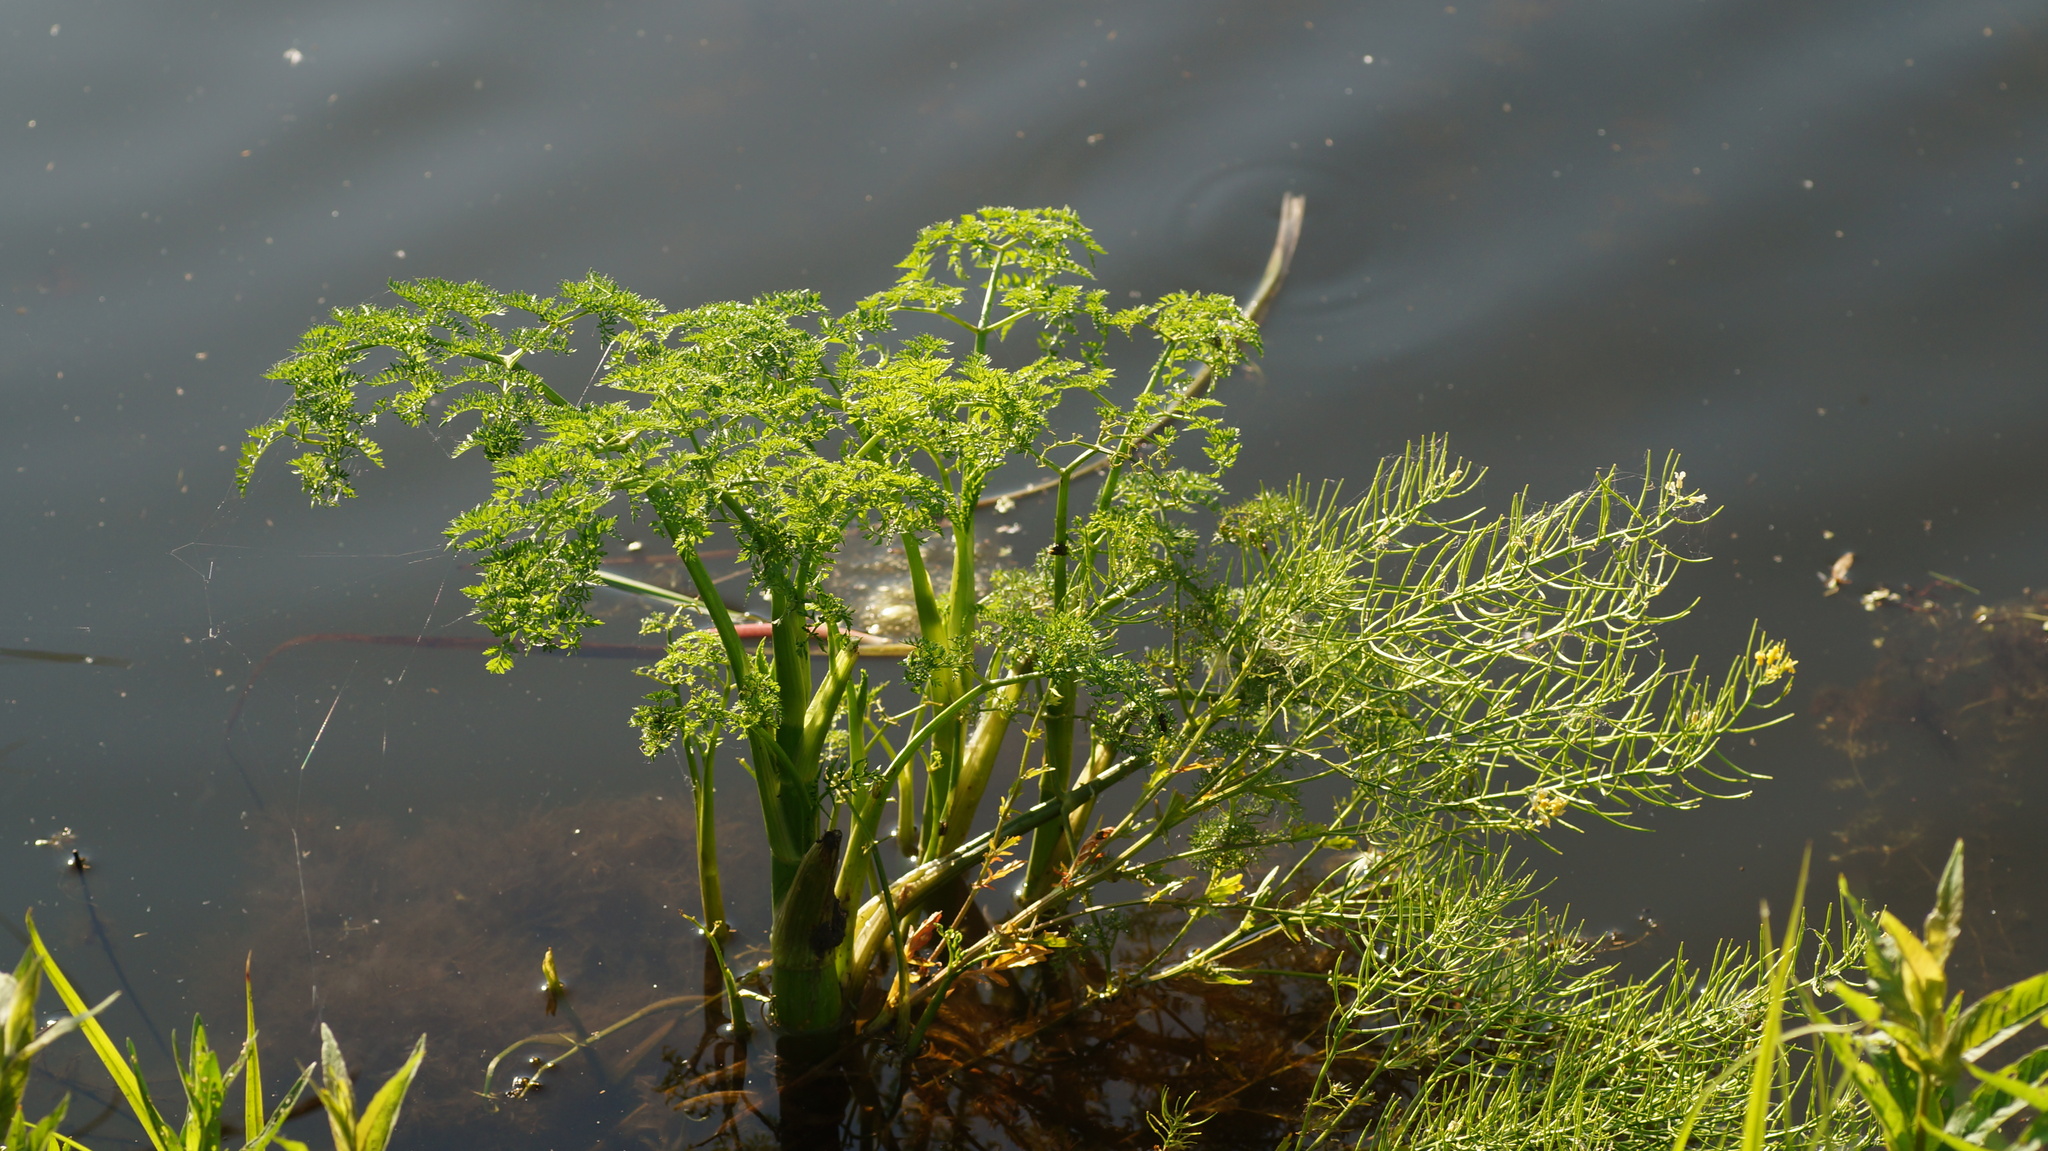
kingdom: Plantae
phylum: Tracheophyta
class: Magnoliopsida
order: Apiales
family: Apiaceae
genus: Oenanthe
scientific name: Oenanthe aquatica
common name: Fine-leaved water-dropwort
